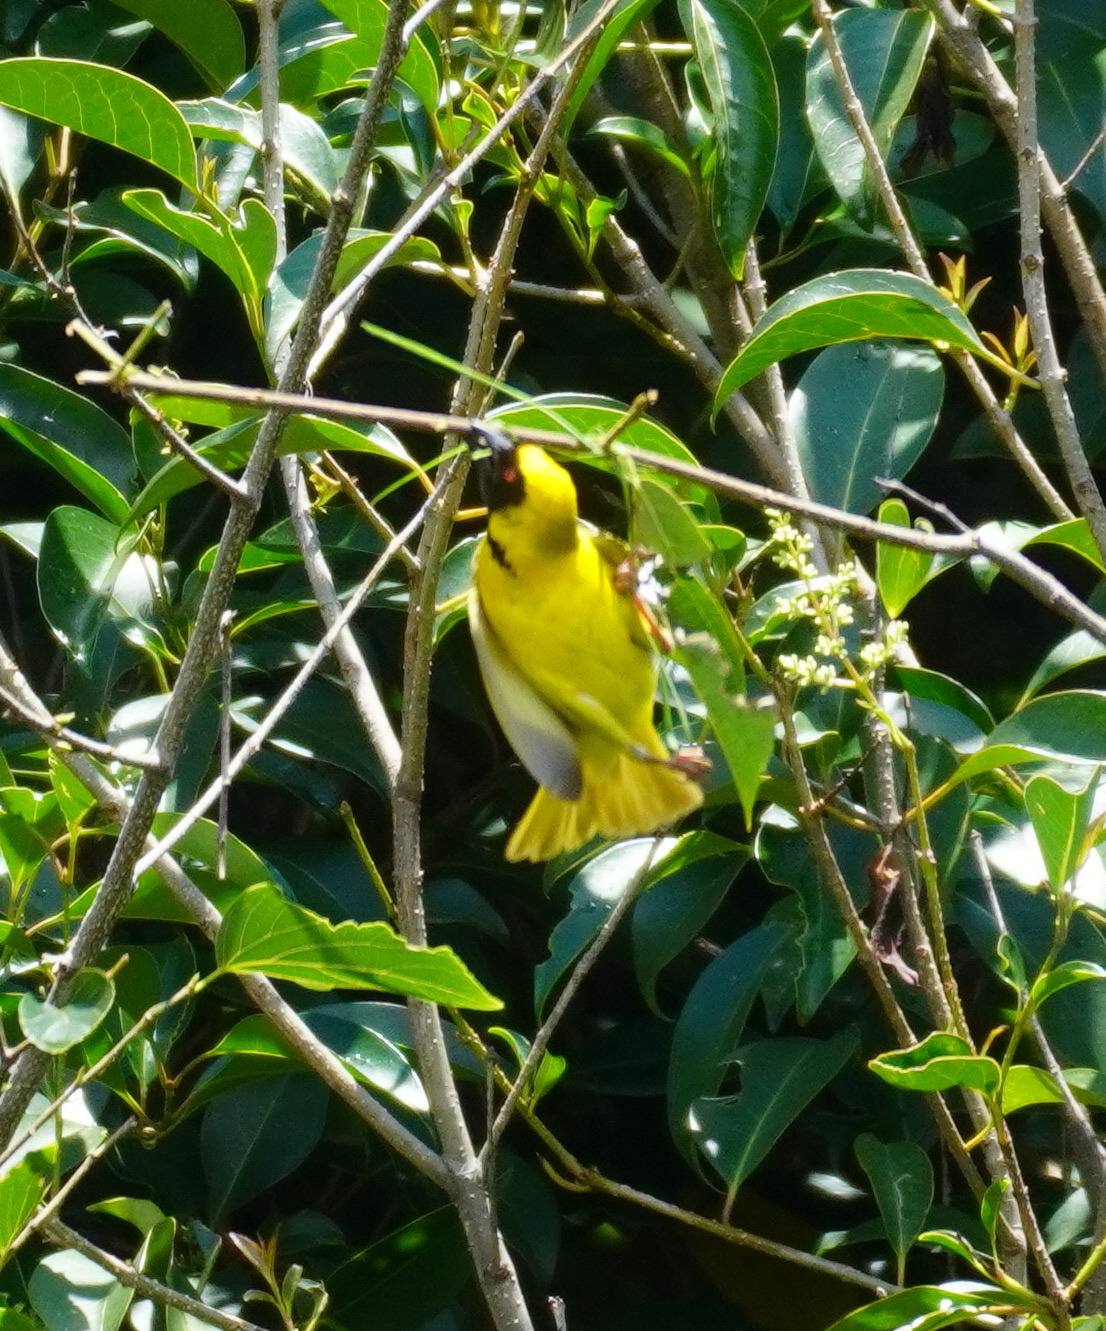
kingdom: Animalia
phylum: Chordata
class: Aves
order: Passeriformes
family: Ploceidae
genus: Ploceus
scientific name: Ploceus velatus
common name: Southern masked weaver
